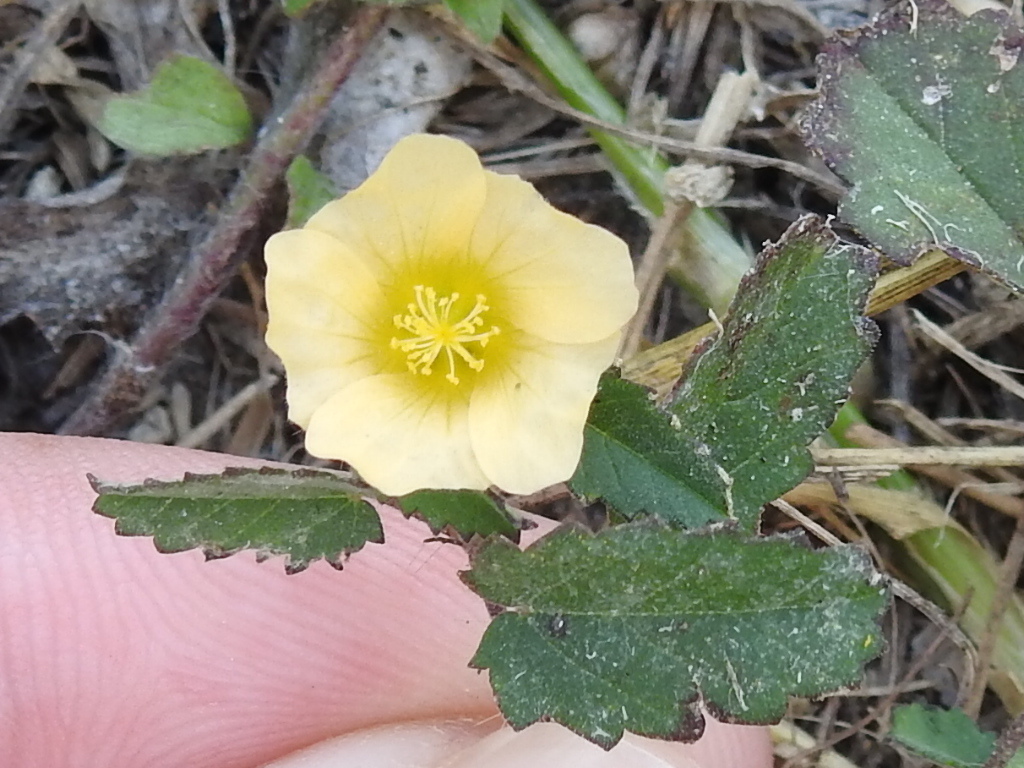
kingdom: Plantae
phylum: Tracheophyta
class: Magnoliopsida
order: Malvales
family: Malvaceae
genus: Sida
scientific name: Sida abutilifolia
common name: Spreading fanpetals
